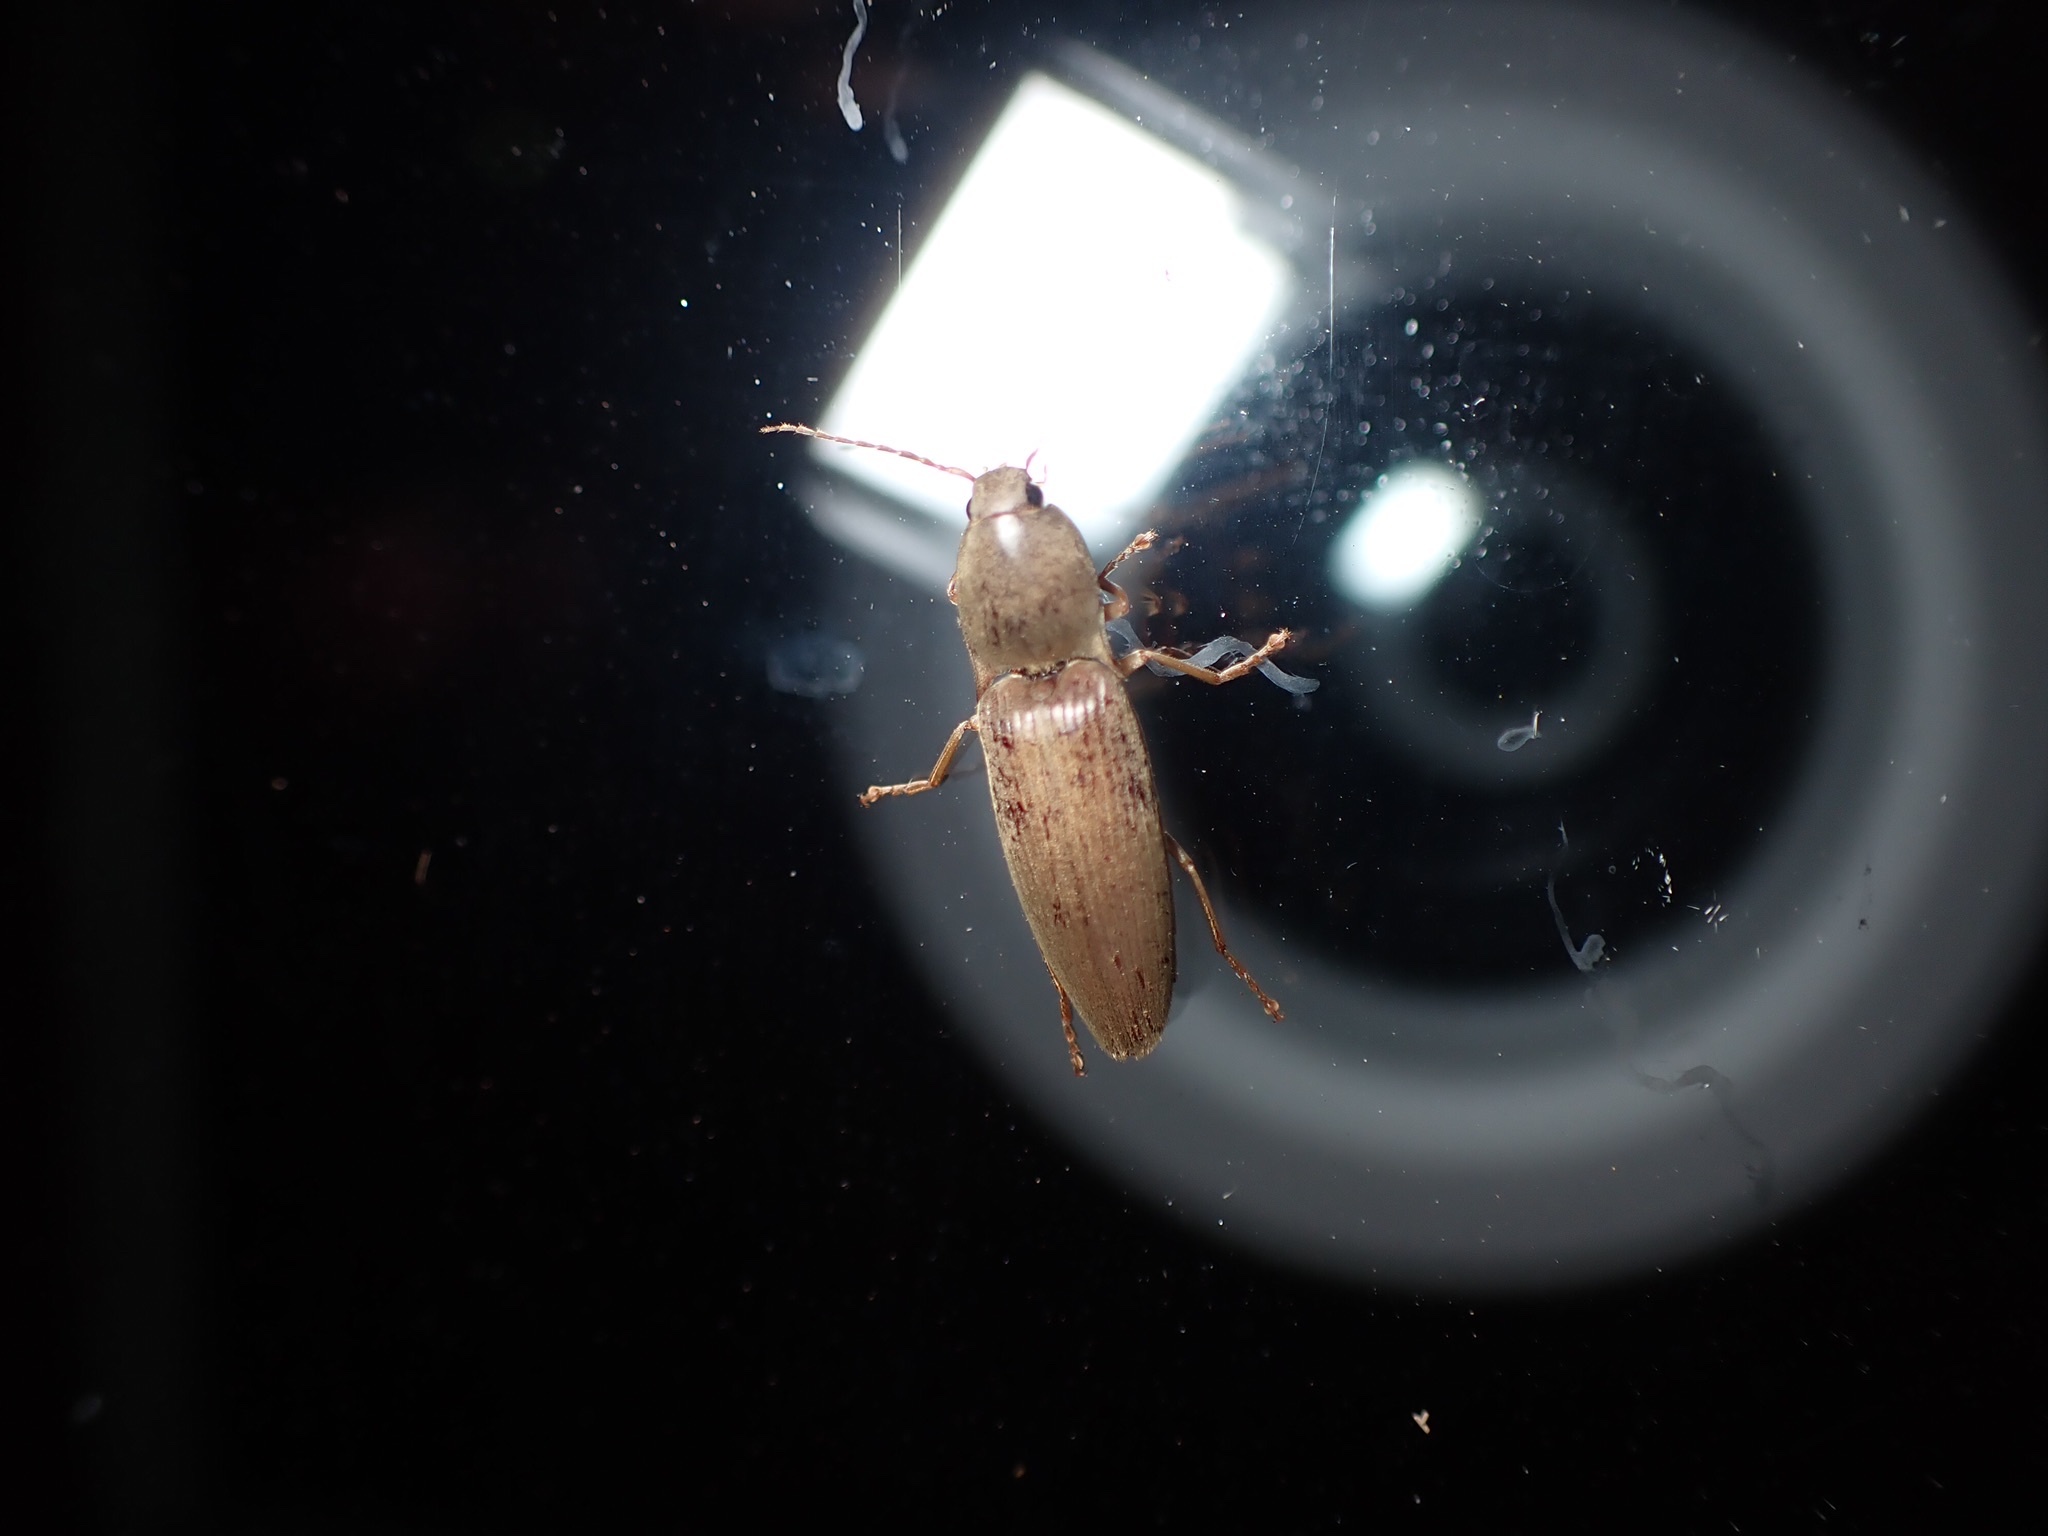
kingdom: Animalia
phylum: Arthropoda
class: Insecta
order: Coleoptera
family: Elateridae
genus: Monocrepidius
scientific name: Monocrepidius lividus
